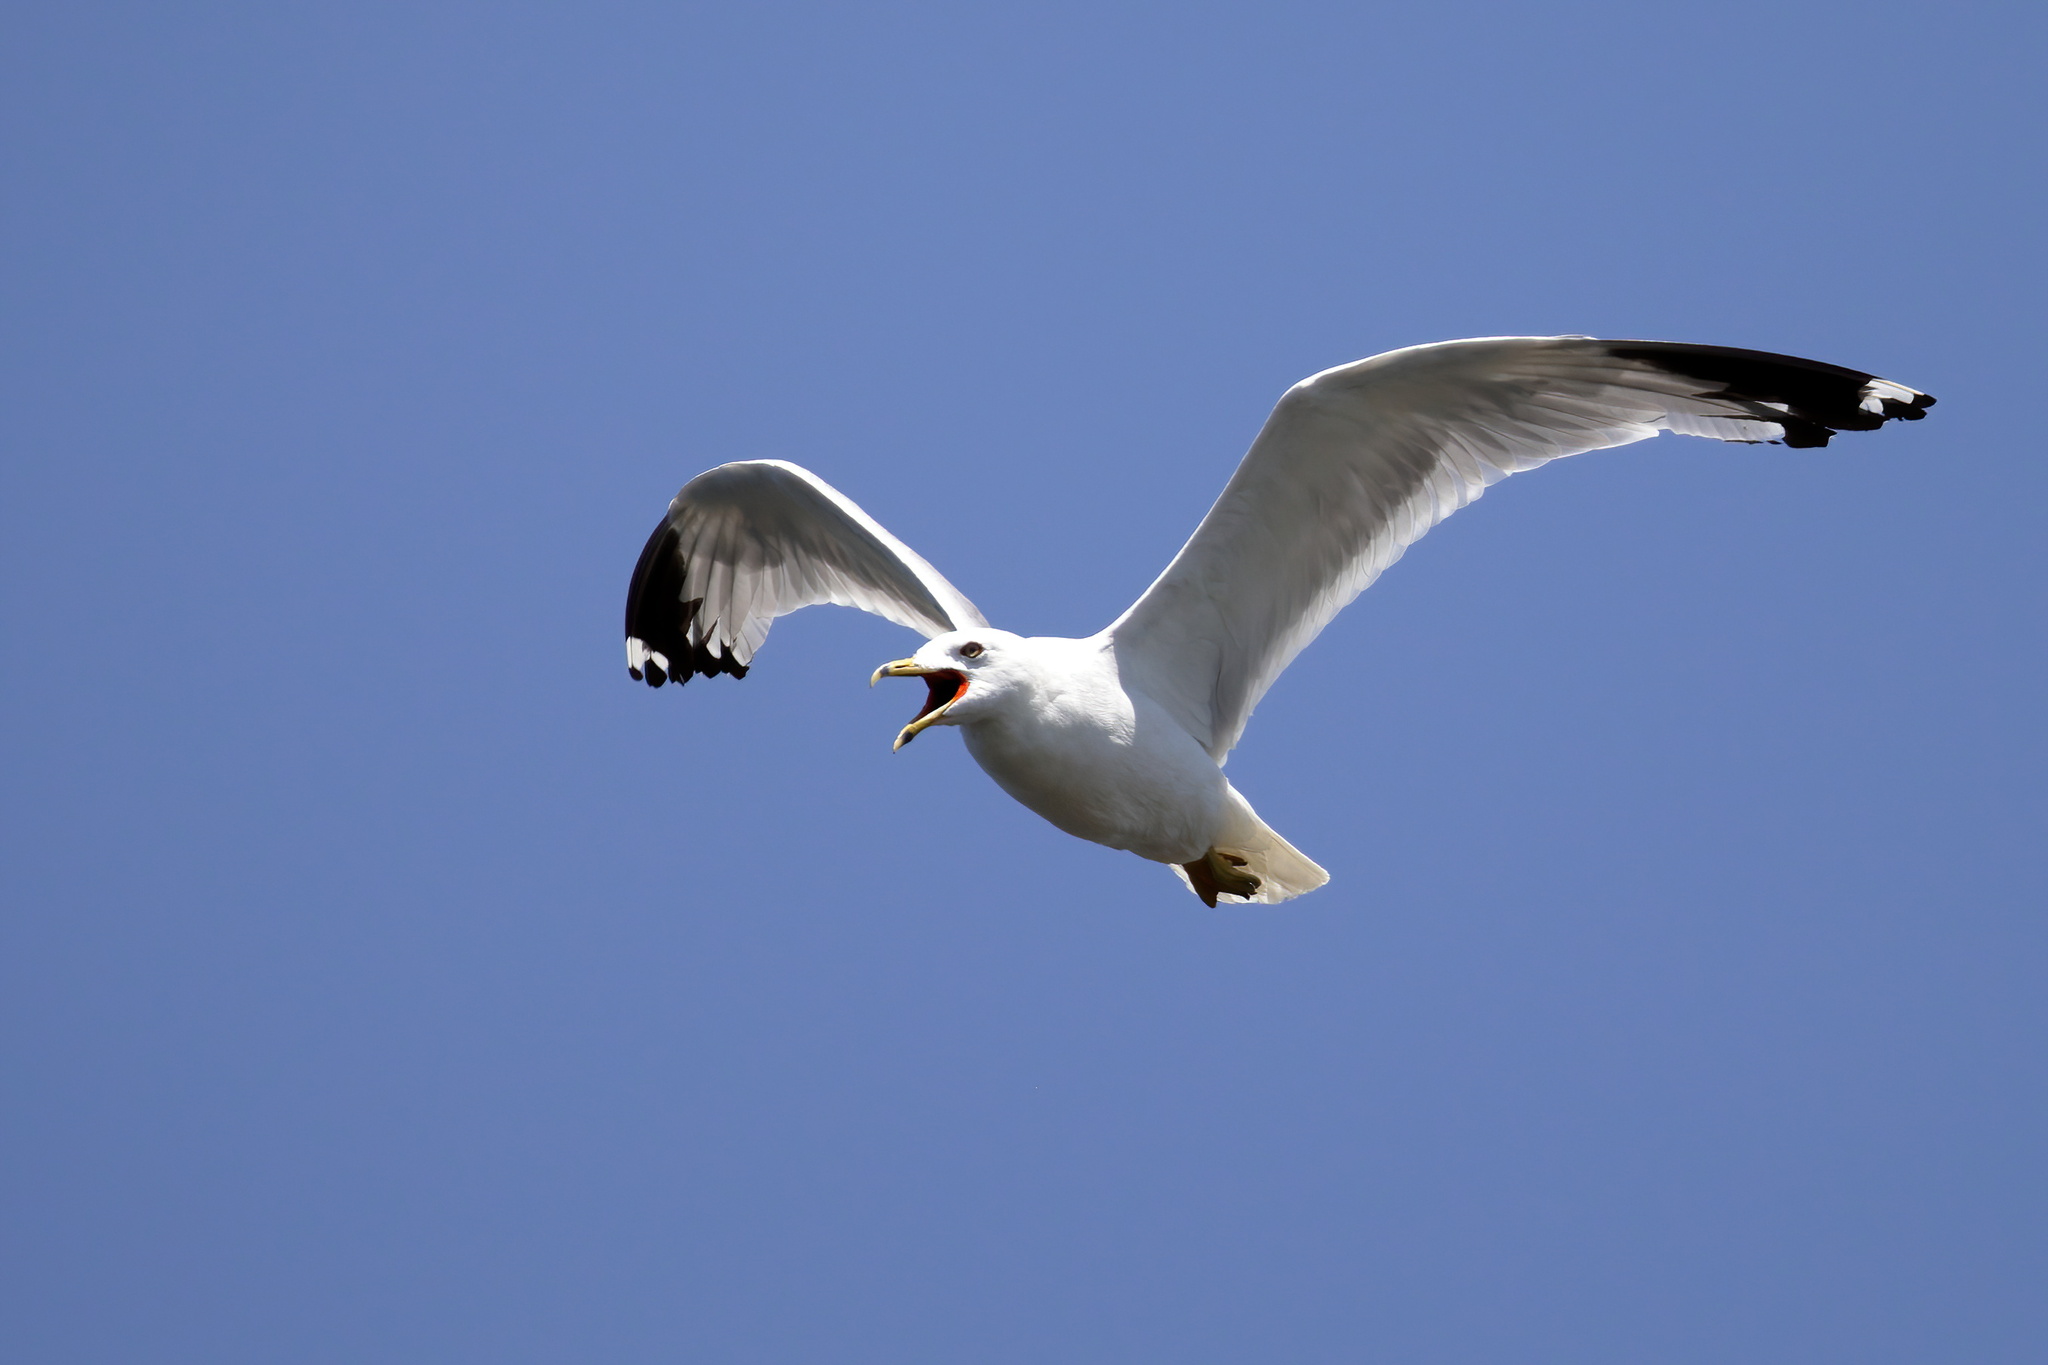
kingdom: Animalia
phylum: Chordata
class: Aves
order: Charadriiformes
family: Laridae
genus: Larus
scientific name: Larus delawarensis
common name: Ring-billed gull
